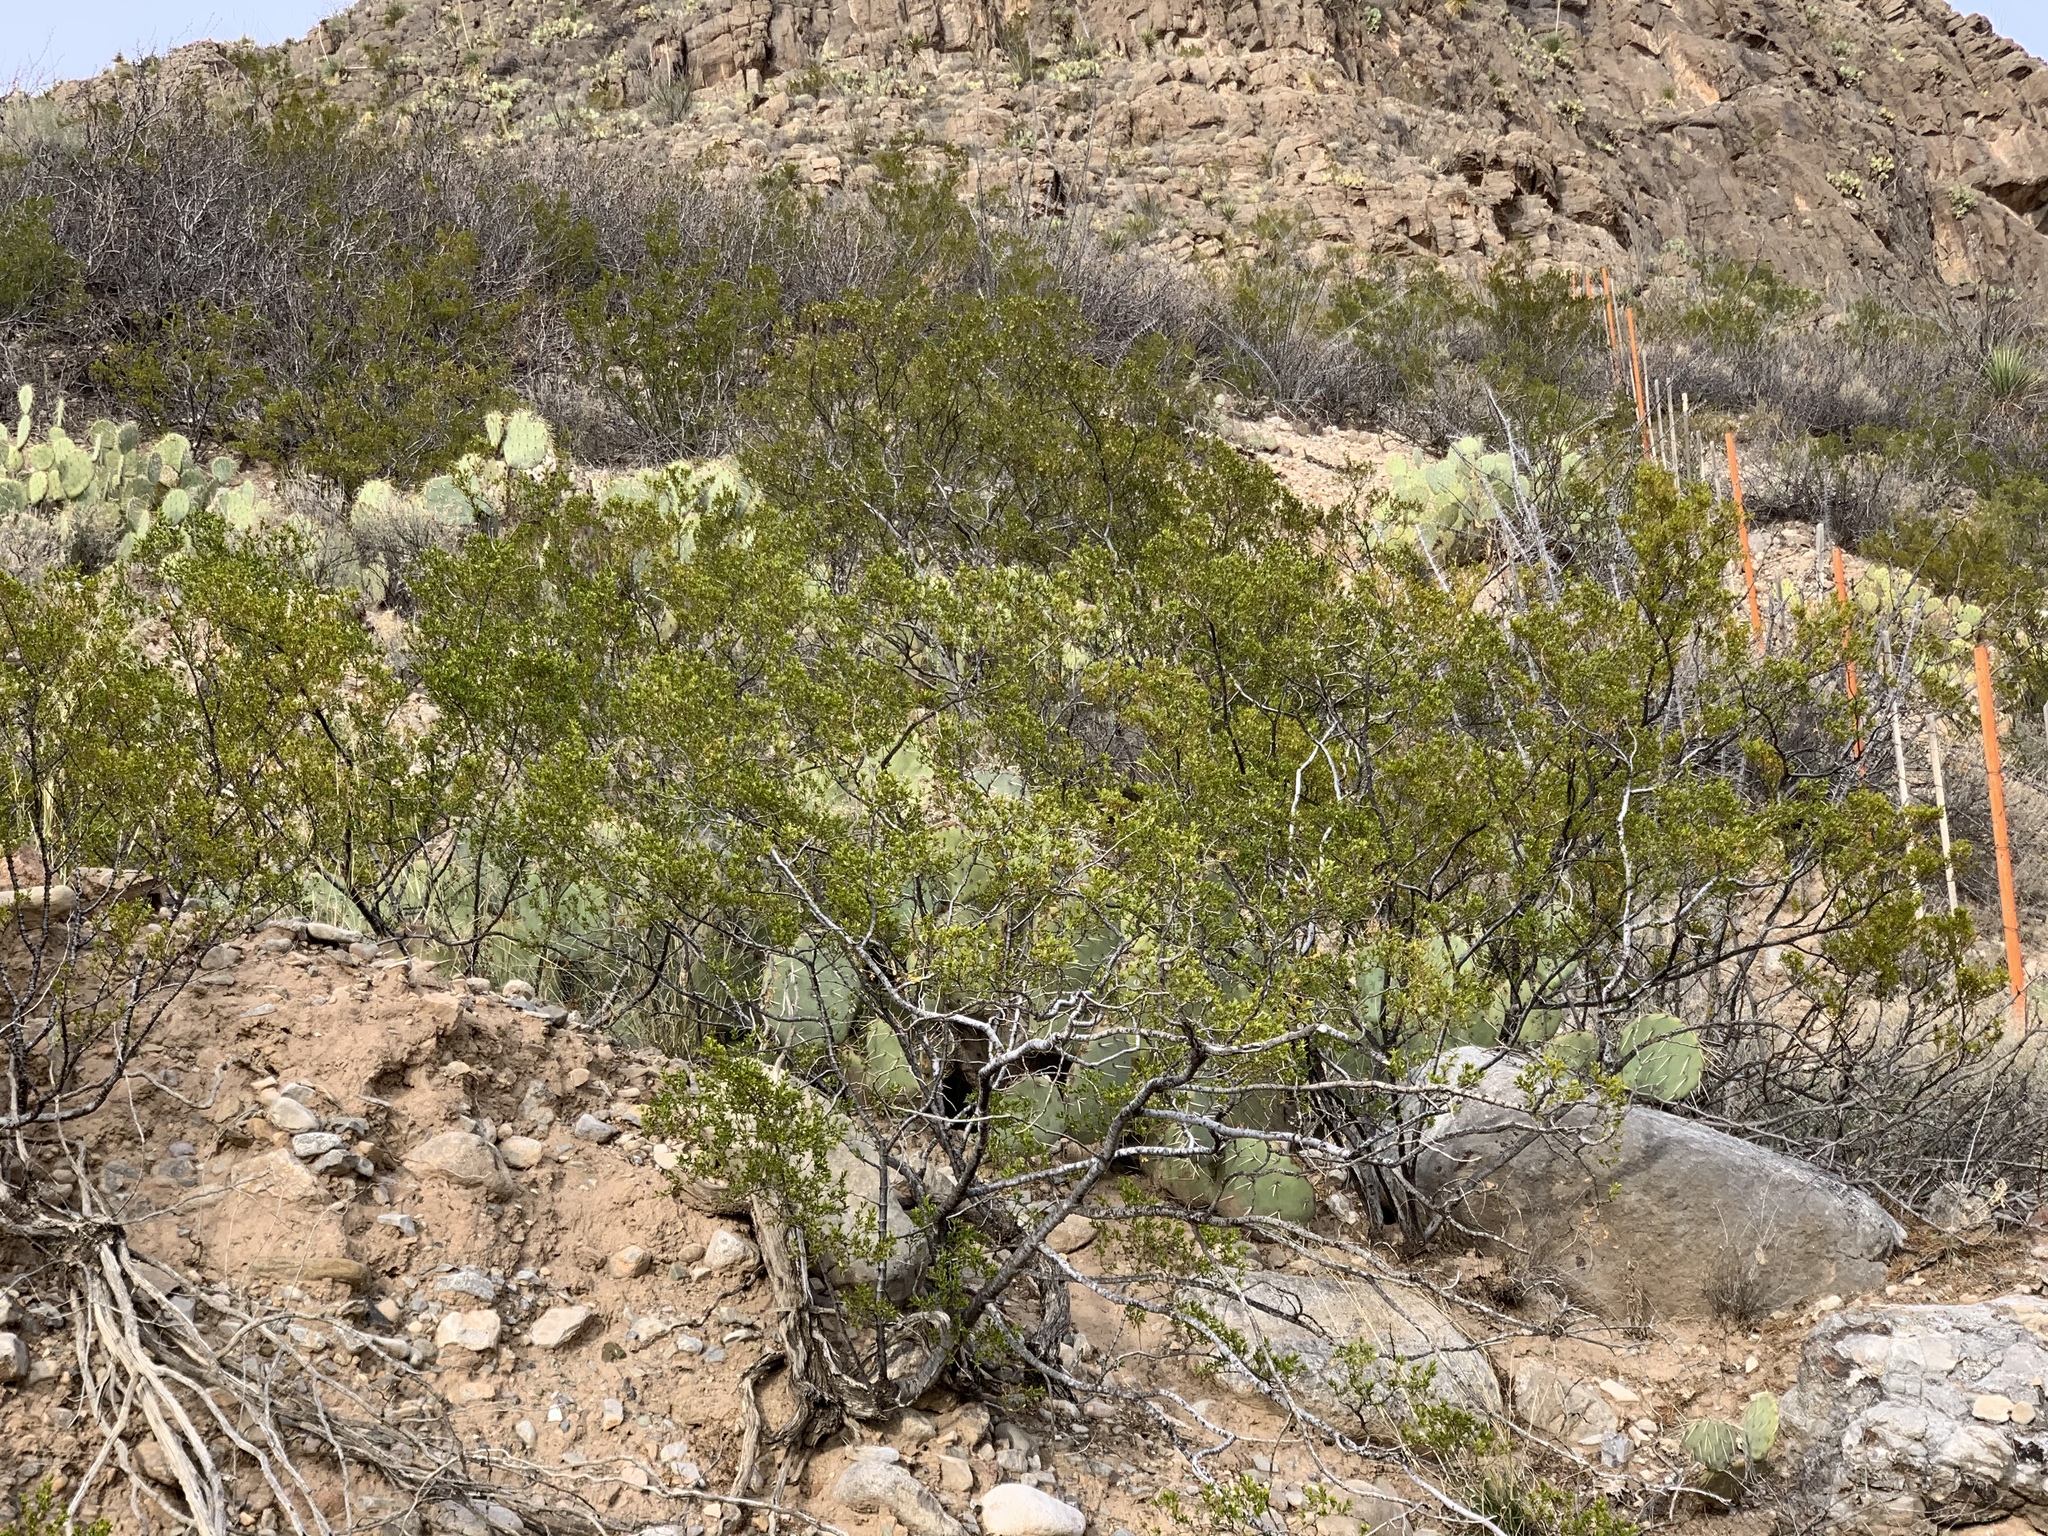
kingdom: Plantae
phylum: Tracheophyta
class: Magnoliopsida
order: Zygophyllales
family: Zygophyllaceae
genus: Larrea
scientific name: Larrea tridentata
